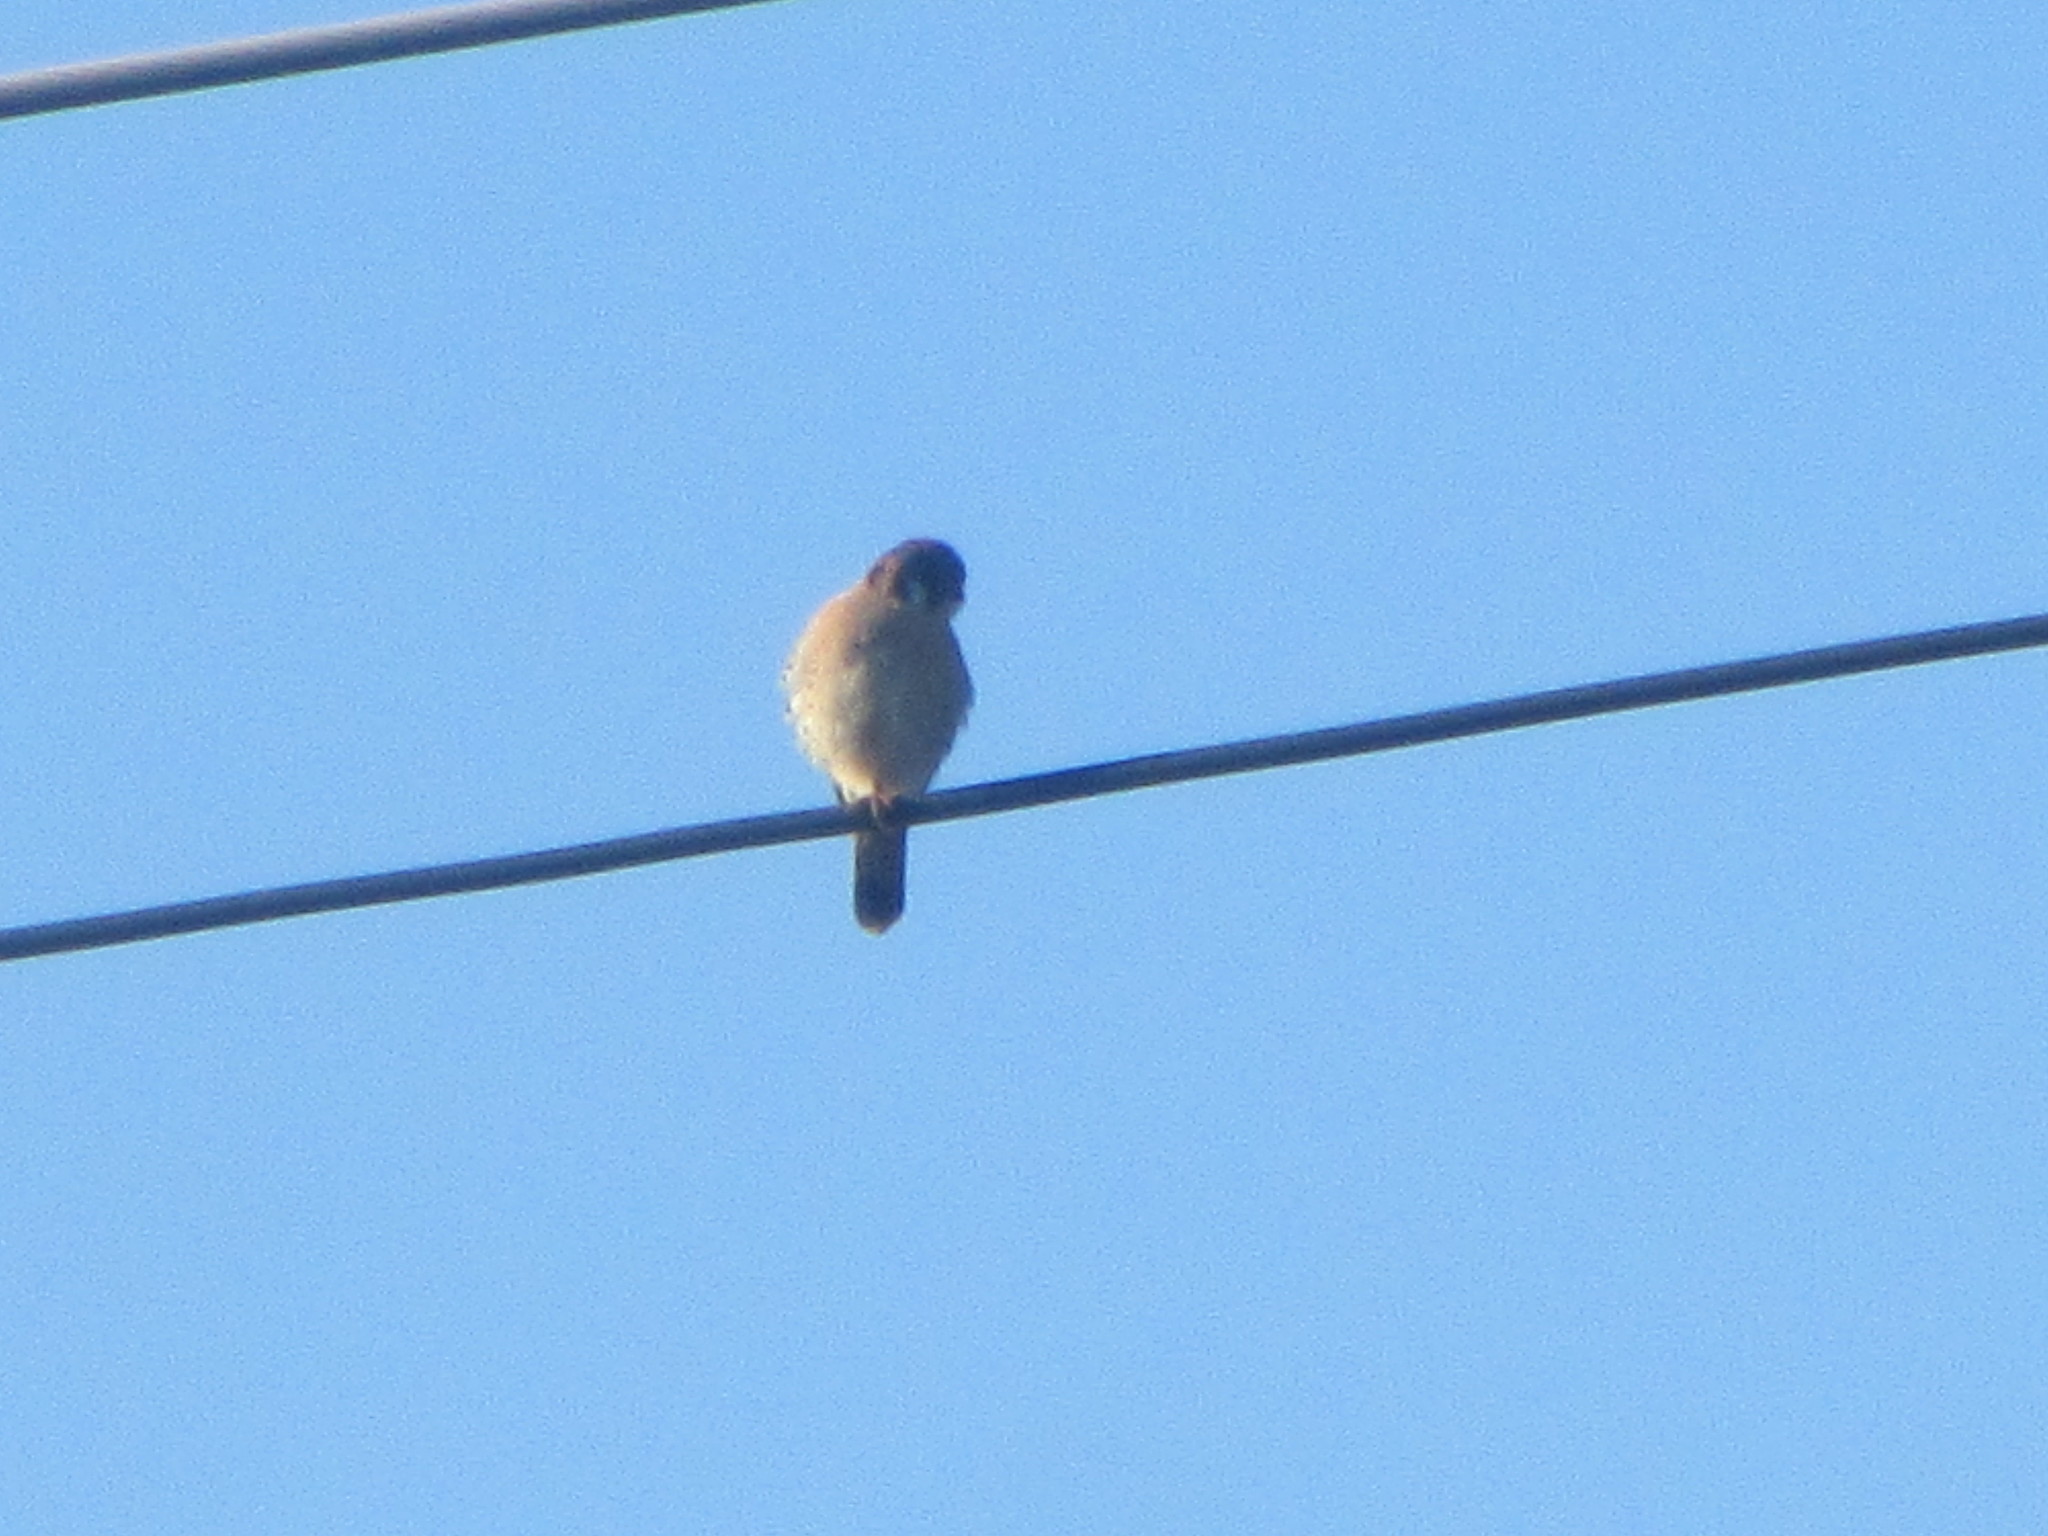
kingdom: Animalia
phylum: Chordata
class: Aves
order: Falconiformes
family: Falconidae
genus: Falco
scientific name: Falco sparverius
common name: American kestrel
